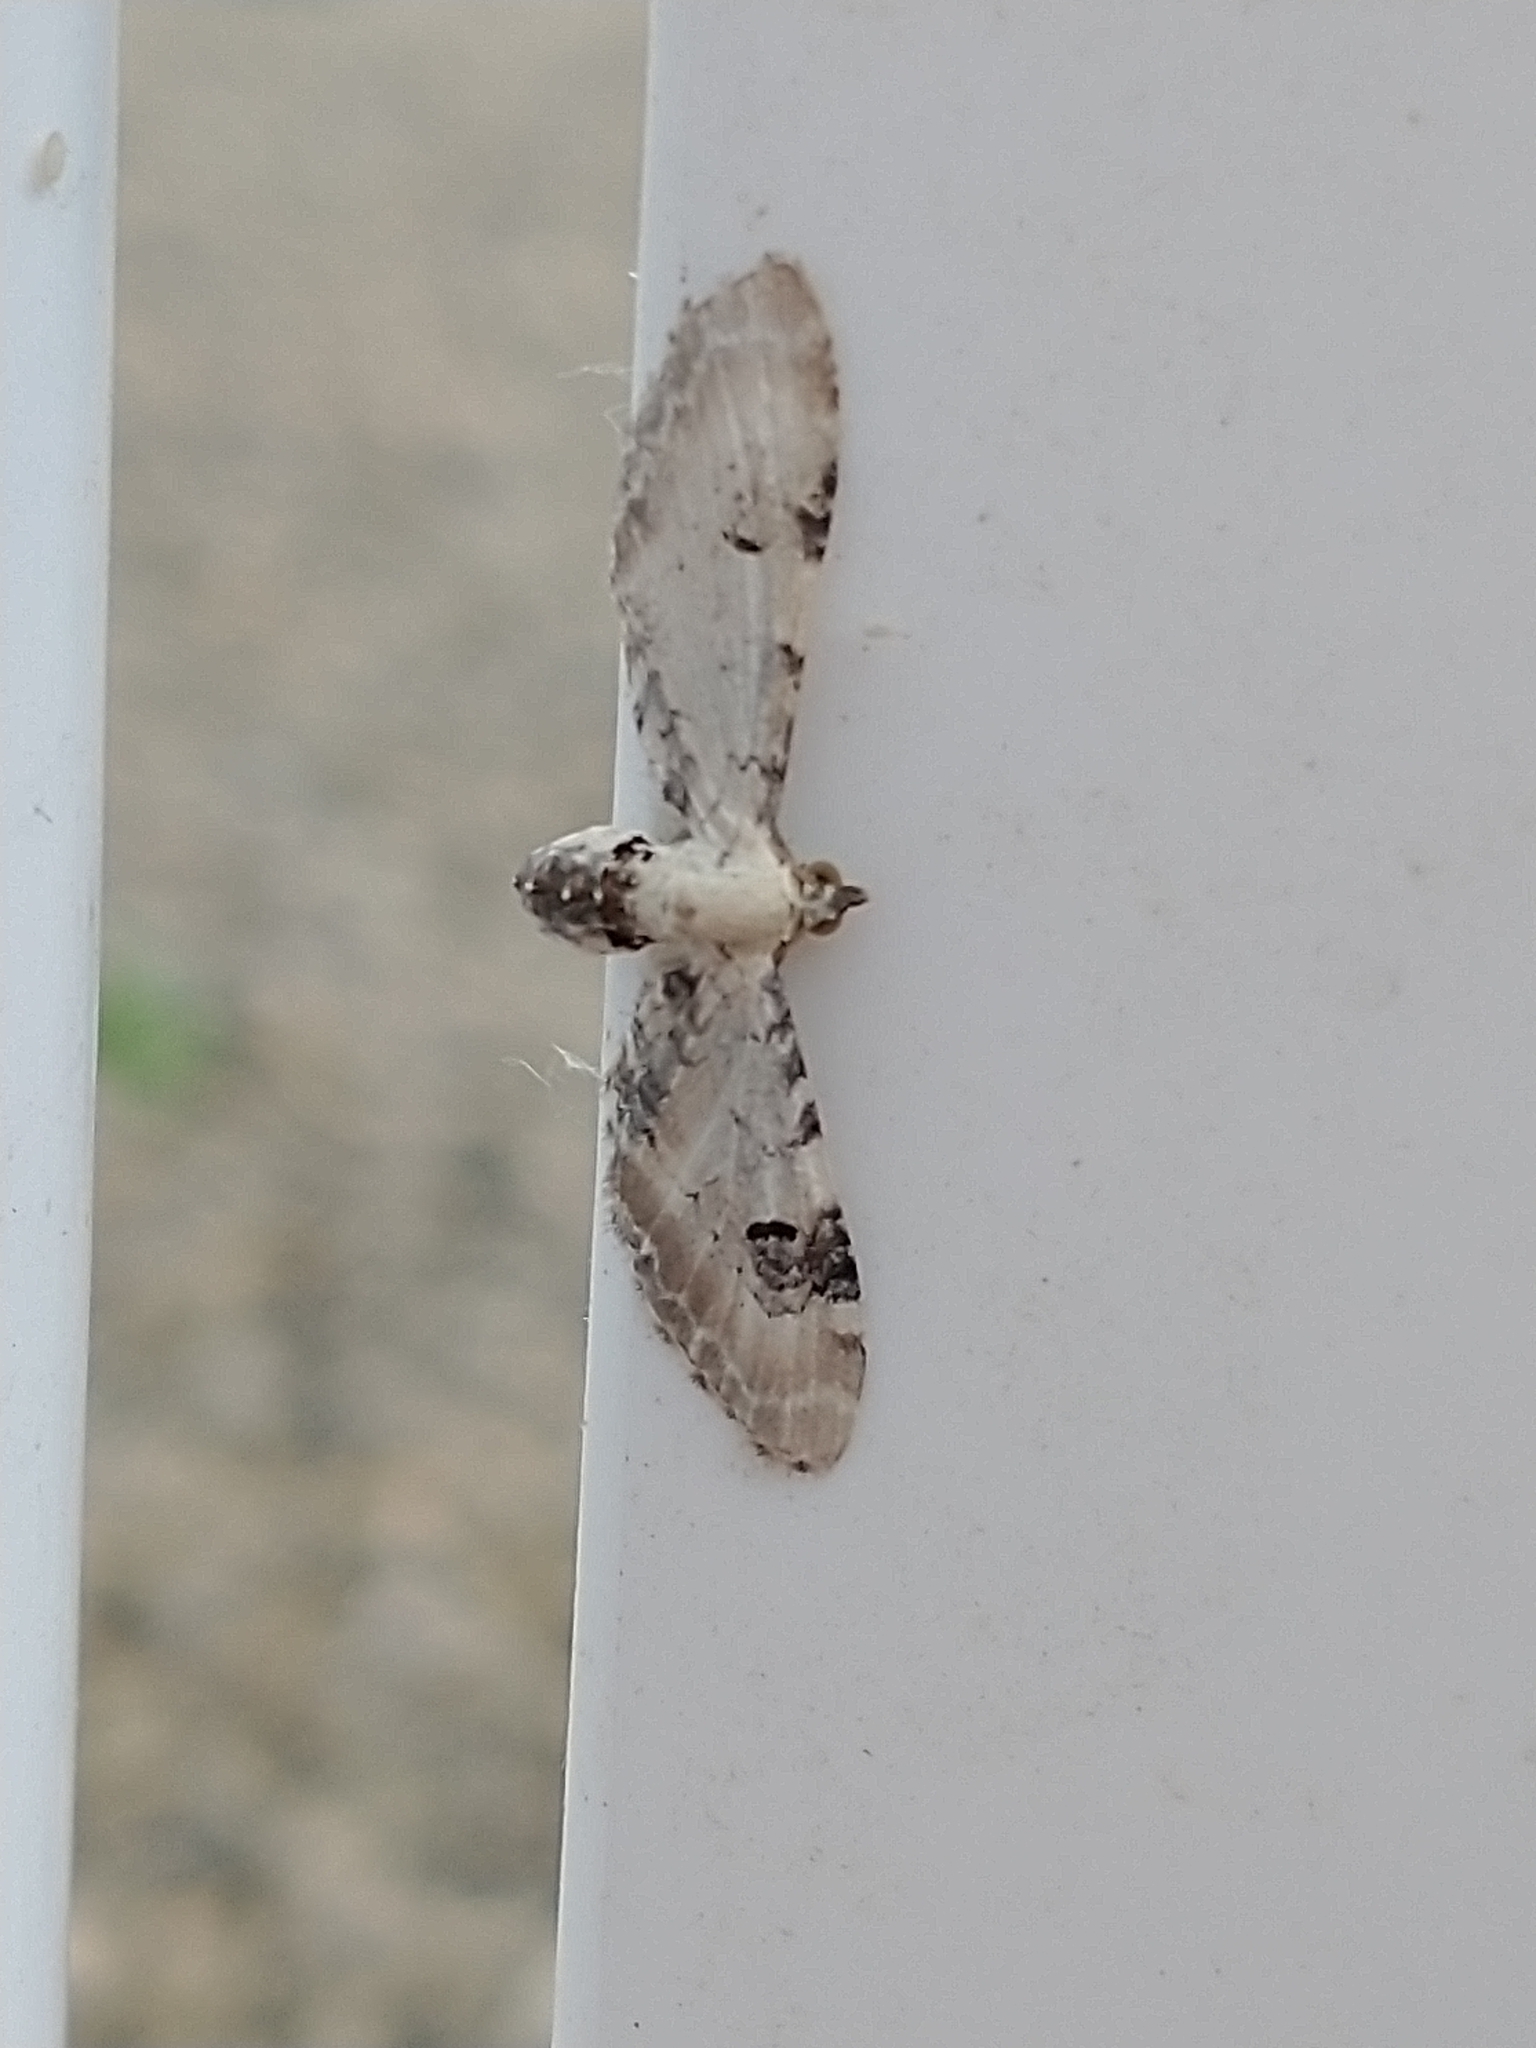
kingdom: Animalia
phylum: Arthropoda
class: Insecta
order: Lepidoptera
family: Geometridae
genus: Eupithecia
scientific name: Eupithecia centaureata
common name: Lime-speck pug
